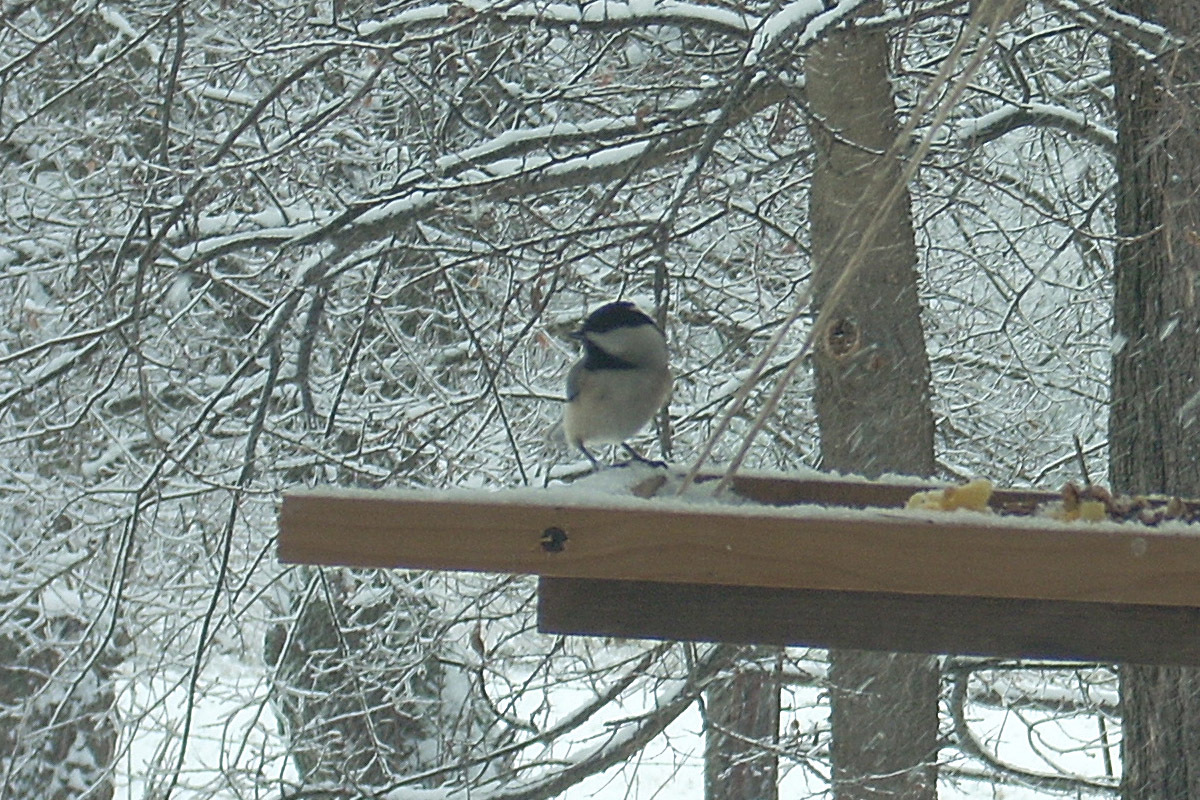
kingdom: Animalia
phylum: Chordata
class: Aves
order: Passeriformes
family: Paridae
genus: Poecile
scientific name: Poecile carolinensis
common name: Carolina chickadee
